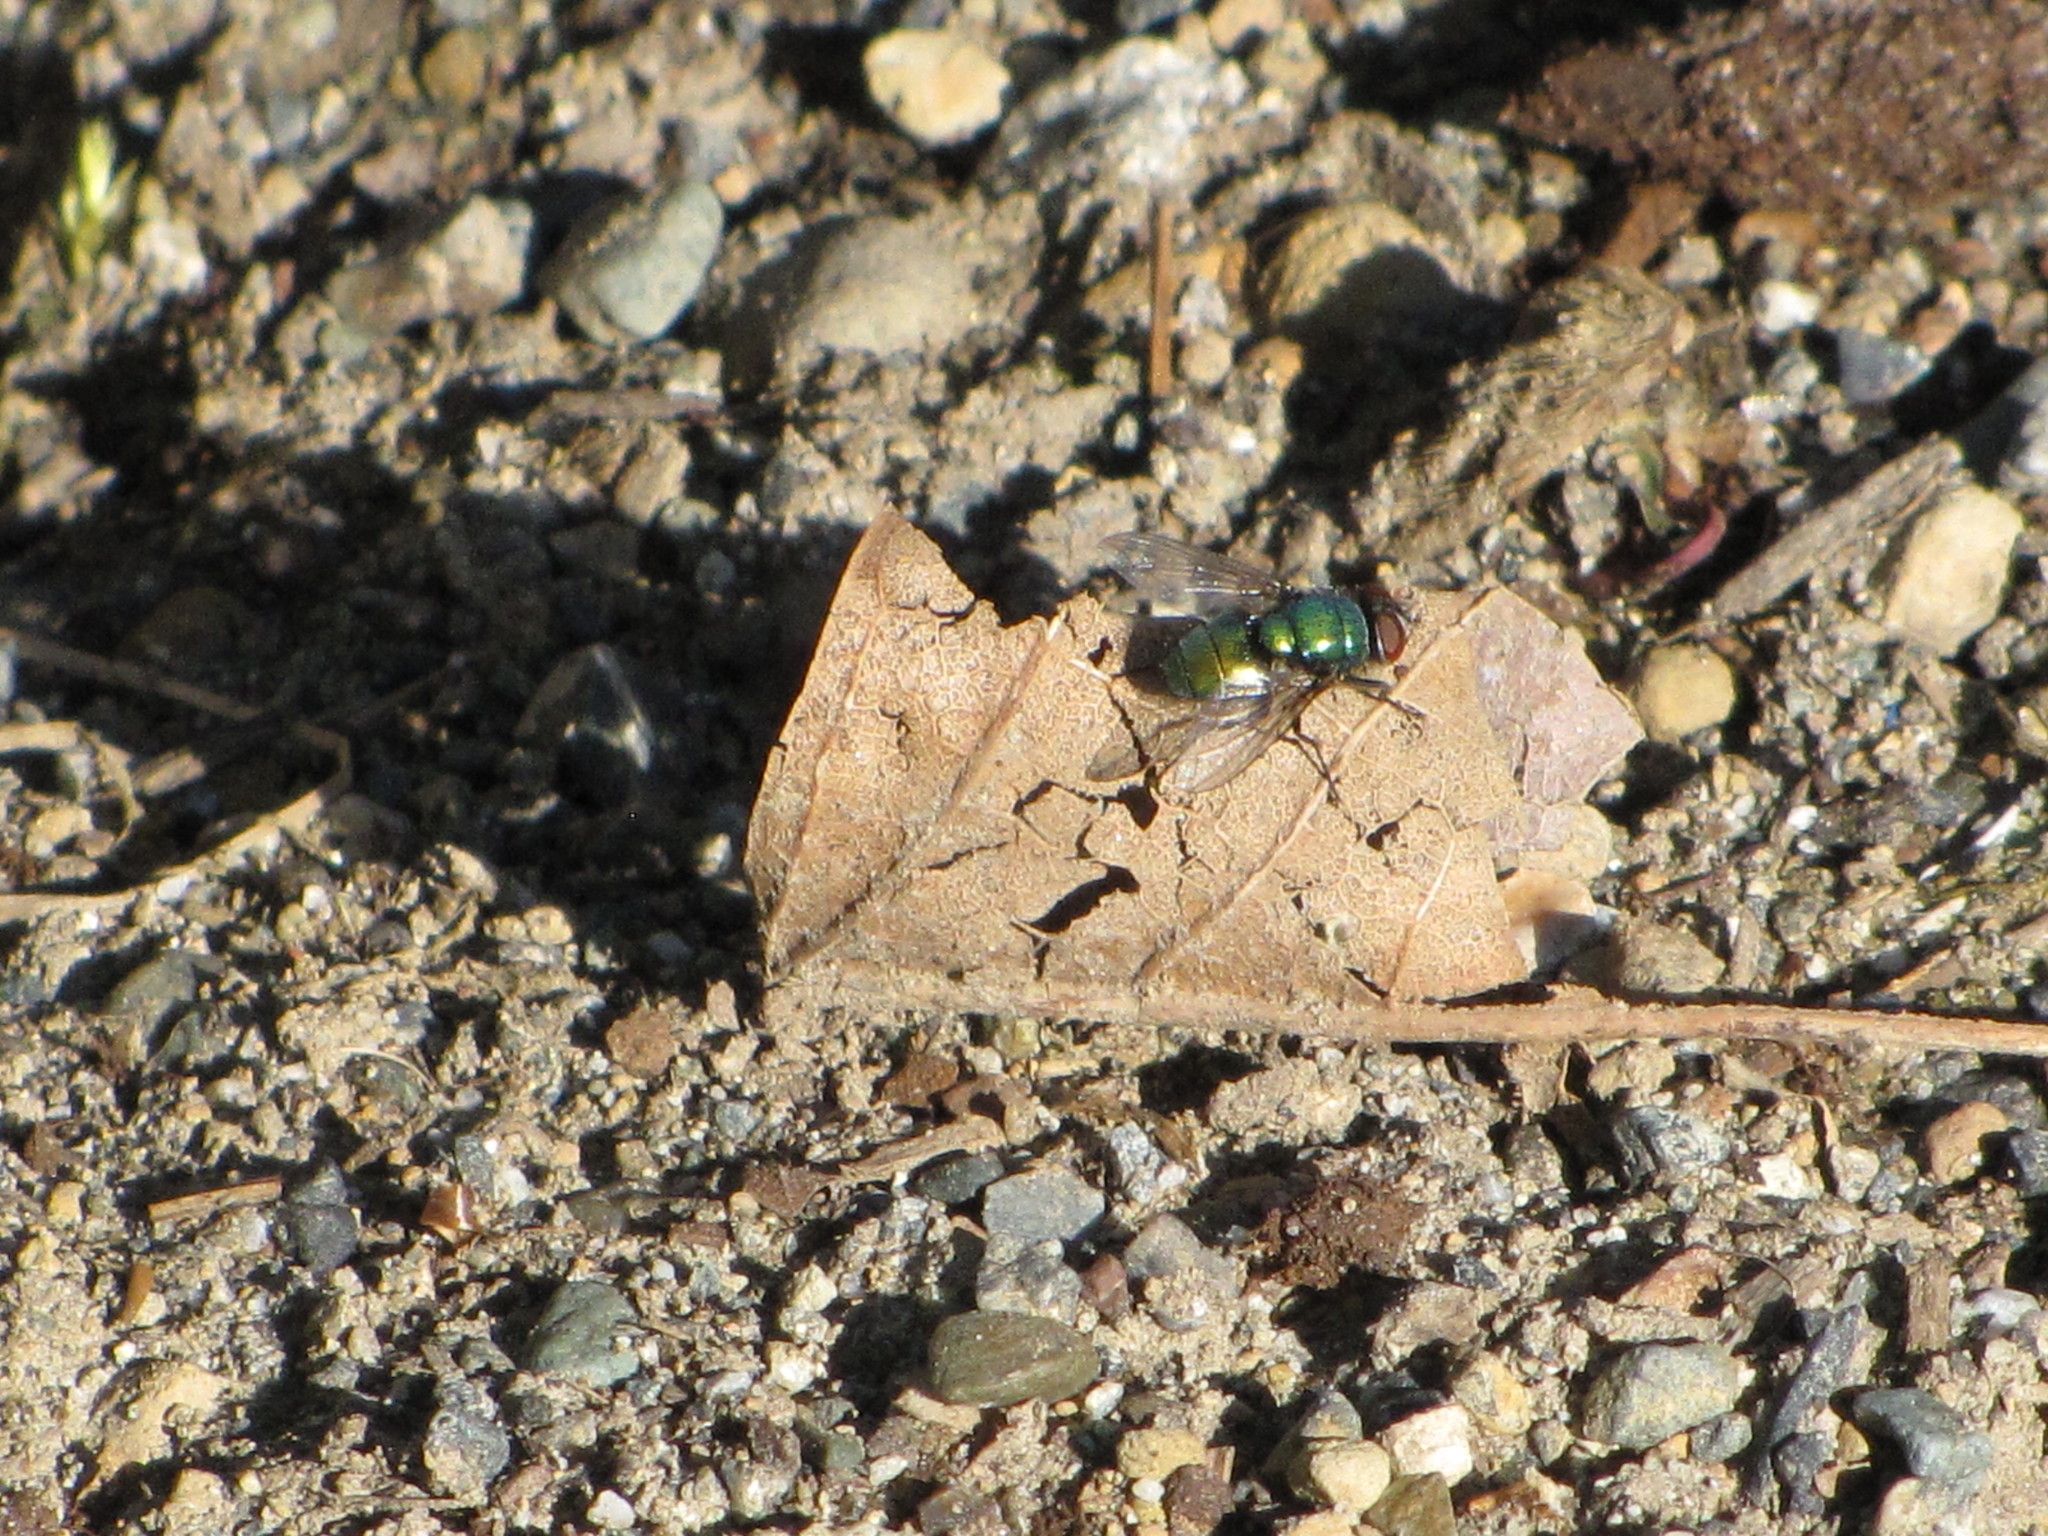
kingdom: Animalia
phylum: Arthropoda
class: Insecta
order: Diptera
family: Calliphoridae
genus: Lucilia
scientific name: Lucilia sericata
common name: Blow fly
